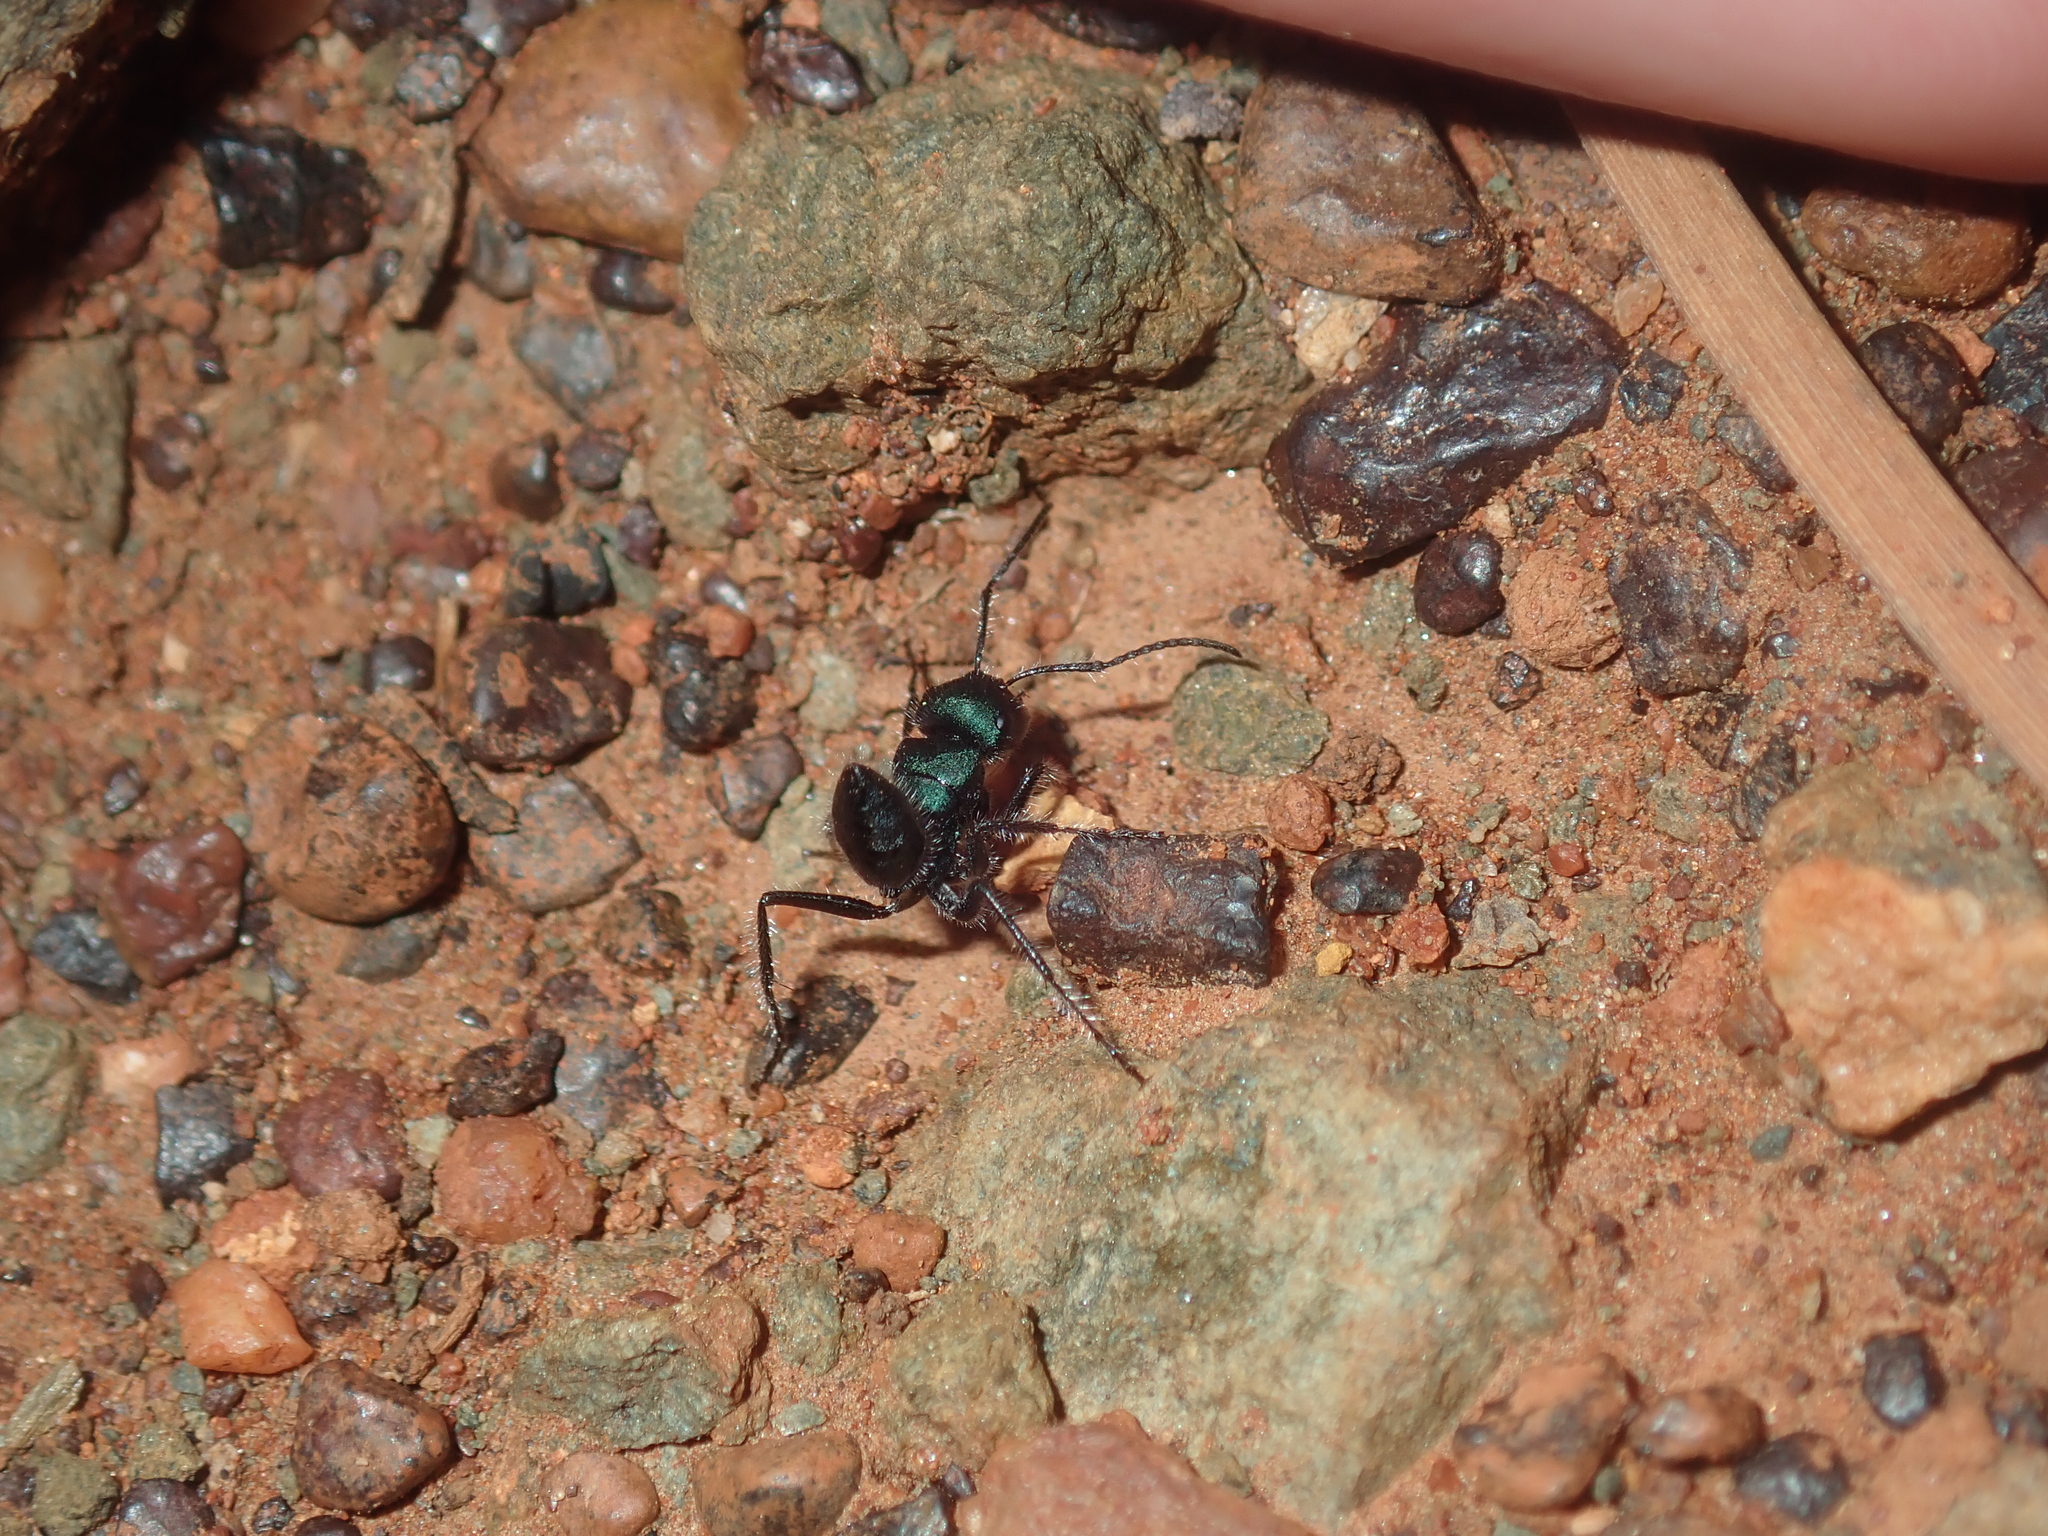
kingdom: Animalia
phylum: Arthropoda
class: Insecta
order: Hymenoptera
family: Formicidae
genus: Calomyrmex
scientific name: Calomyrmex purpureus
